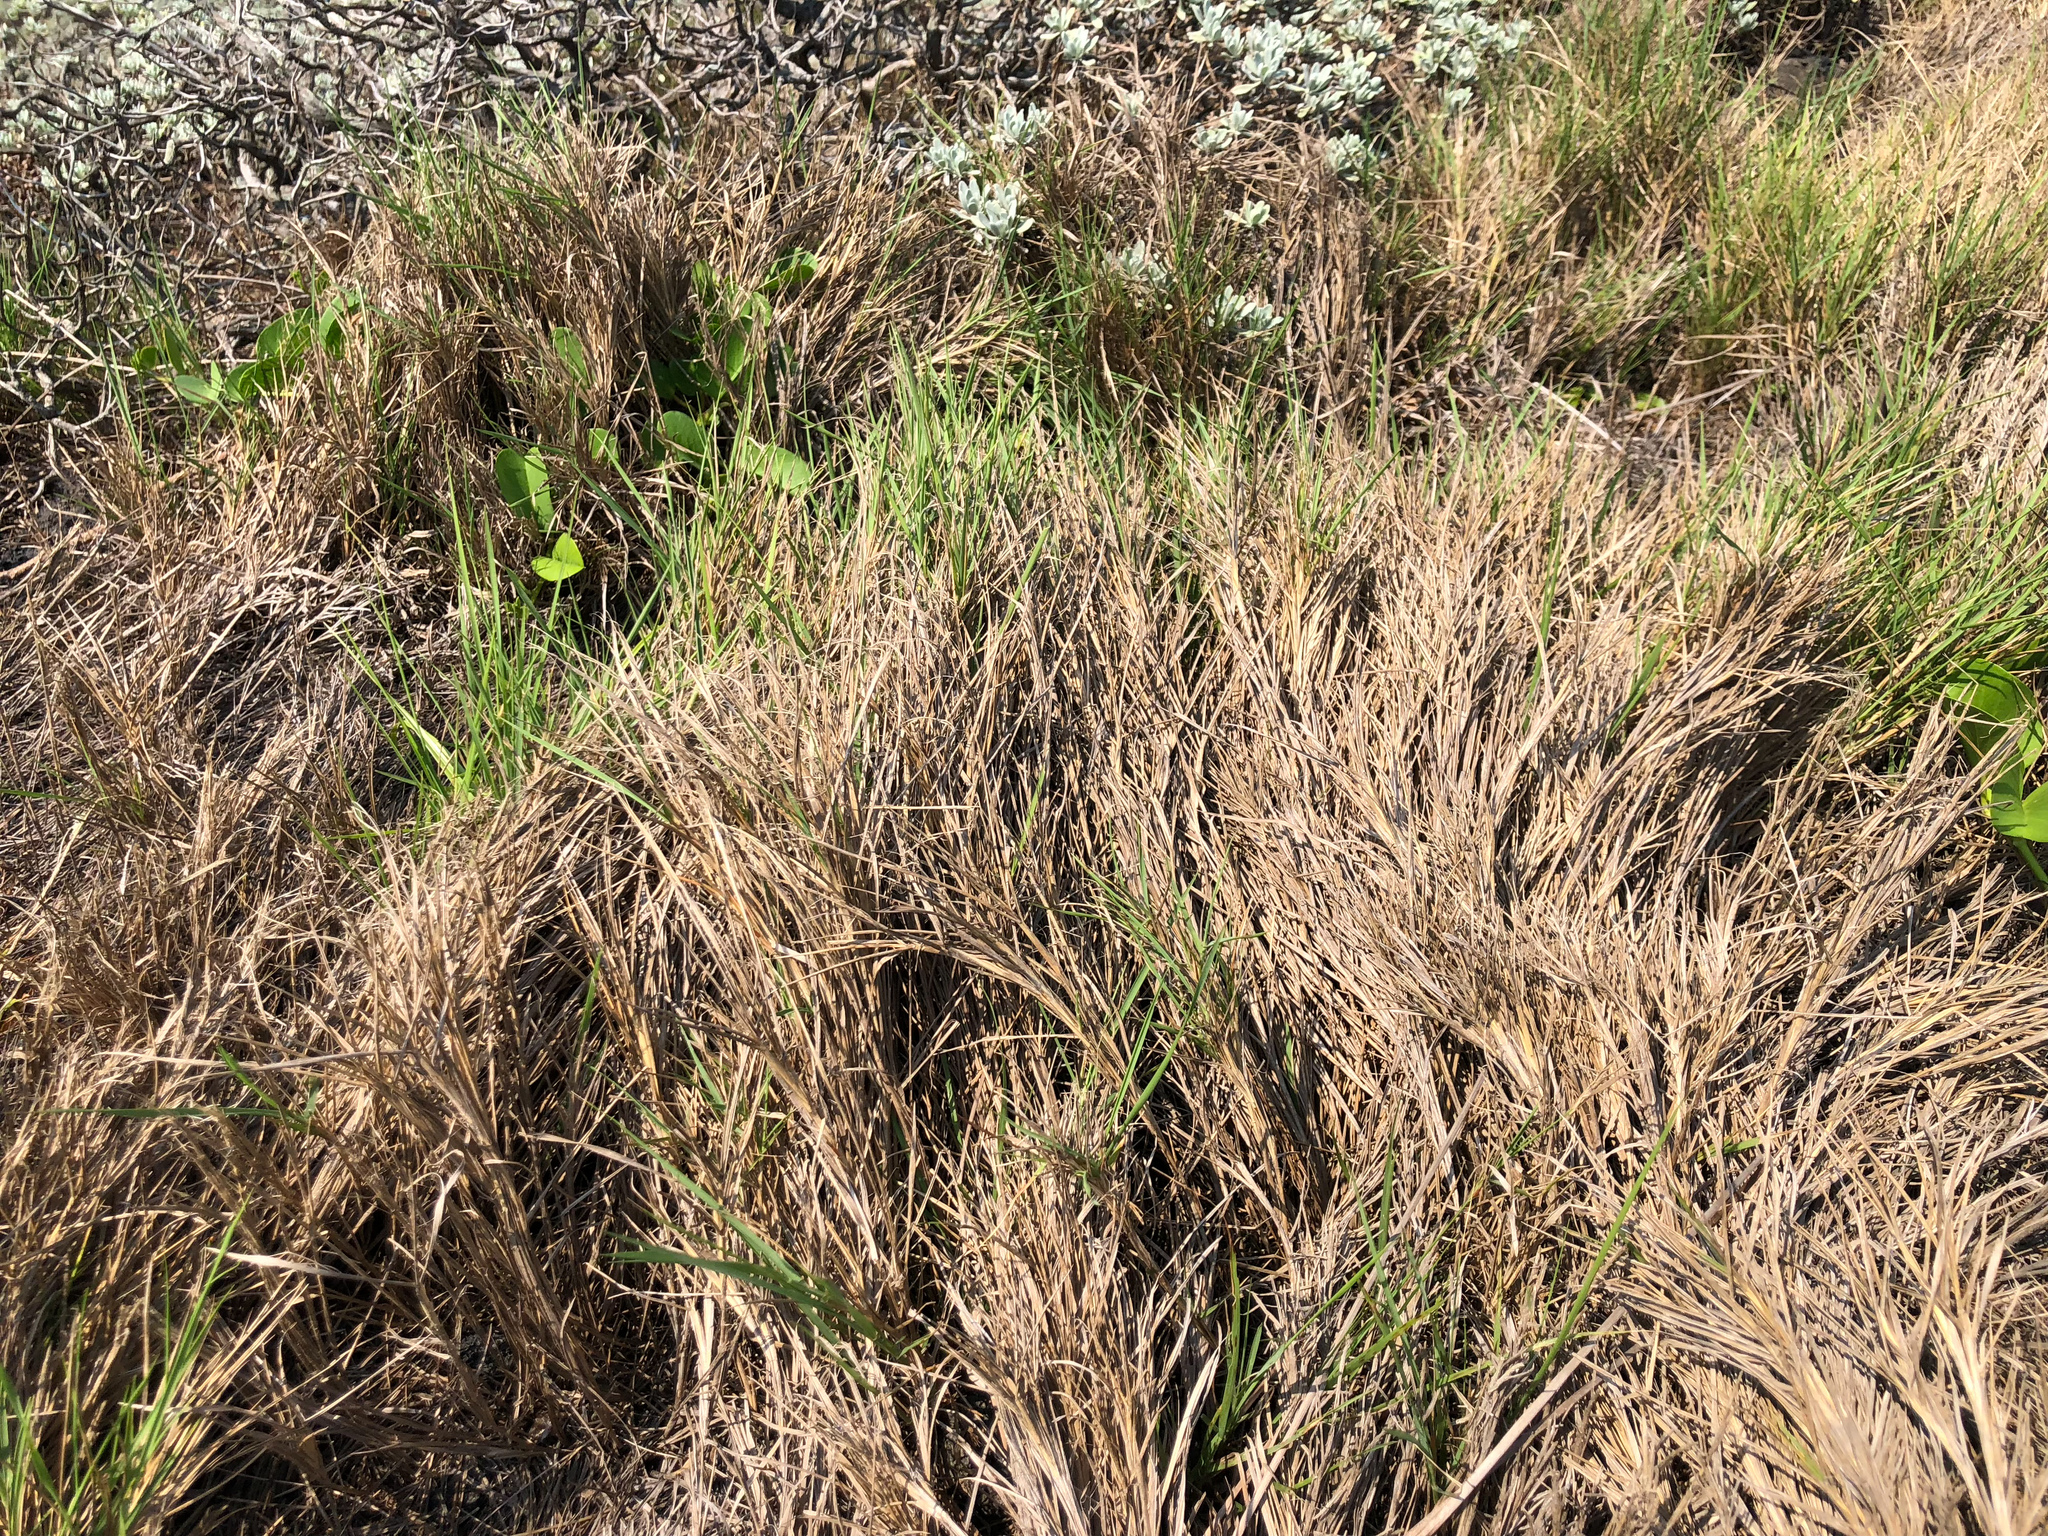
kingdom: Plantae
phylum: Tracheophyta
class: Liliopsida
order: Poales
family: Poaceae
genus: Zoysia
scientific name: Zoysia sinica
